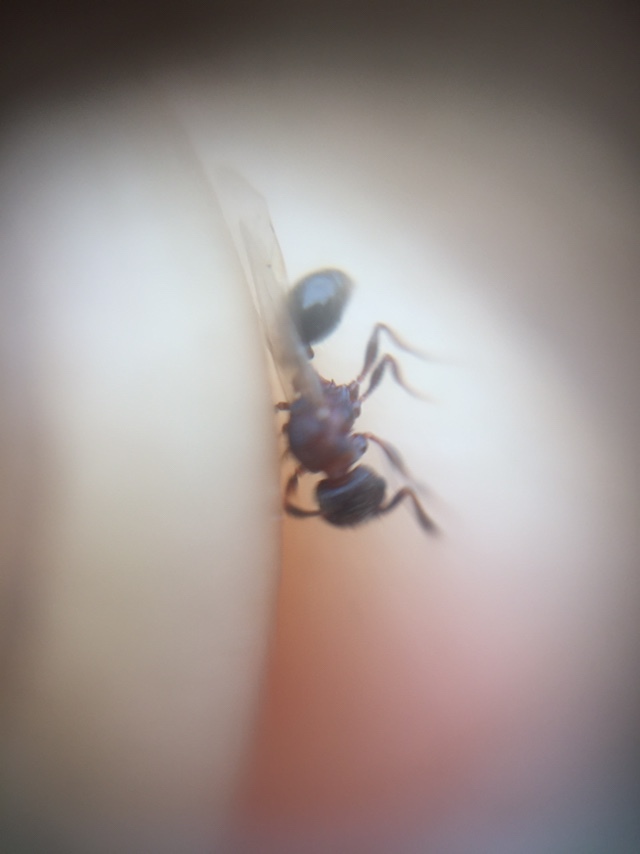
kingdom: Animalia
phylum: Arthropoda
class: Insecta
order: Hymenoptera
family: Formicidae
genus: Tetramorium
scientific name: Tetramorium smithi
